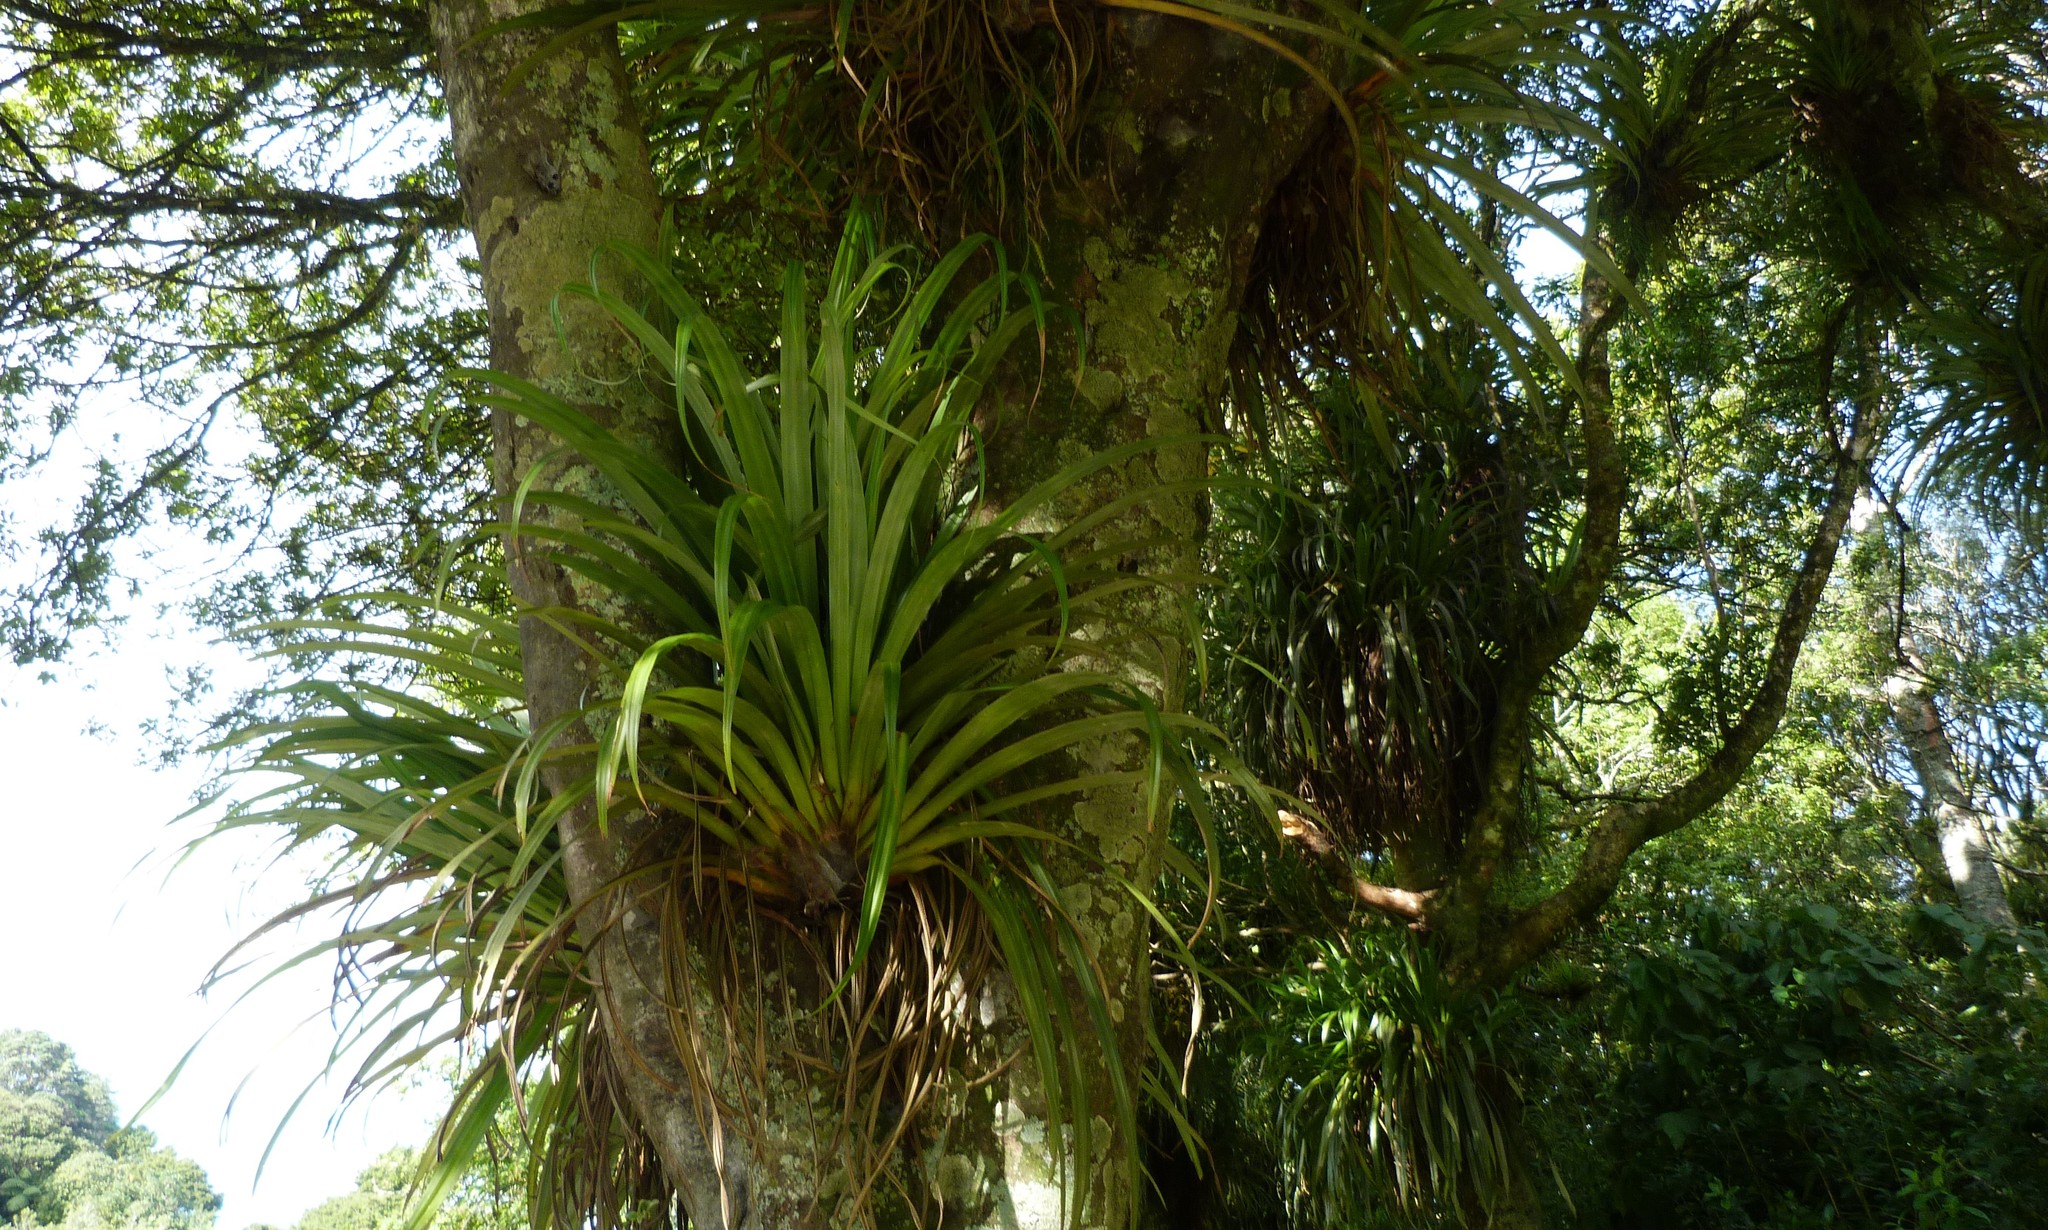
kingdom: Plantae
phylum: Tracheophyta
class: Liliopsida
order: Asparagales
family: Asteliaceae
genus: Astelia
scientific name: Astelia hastata
